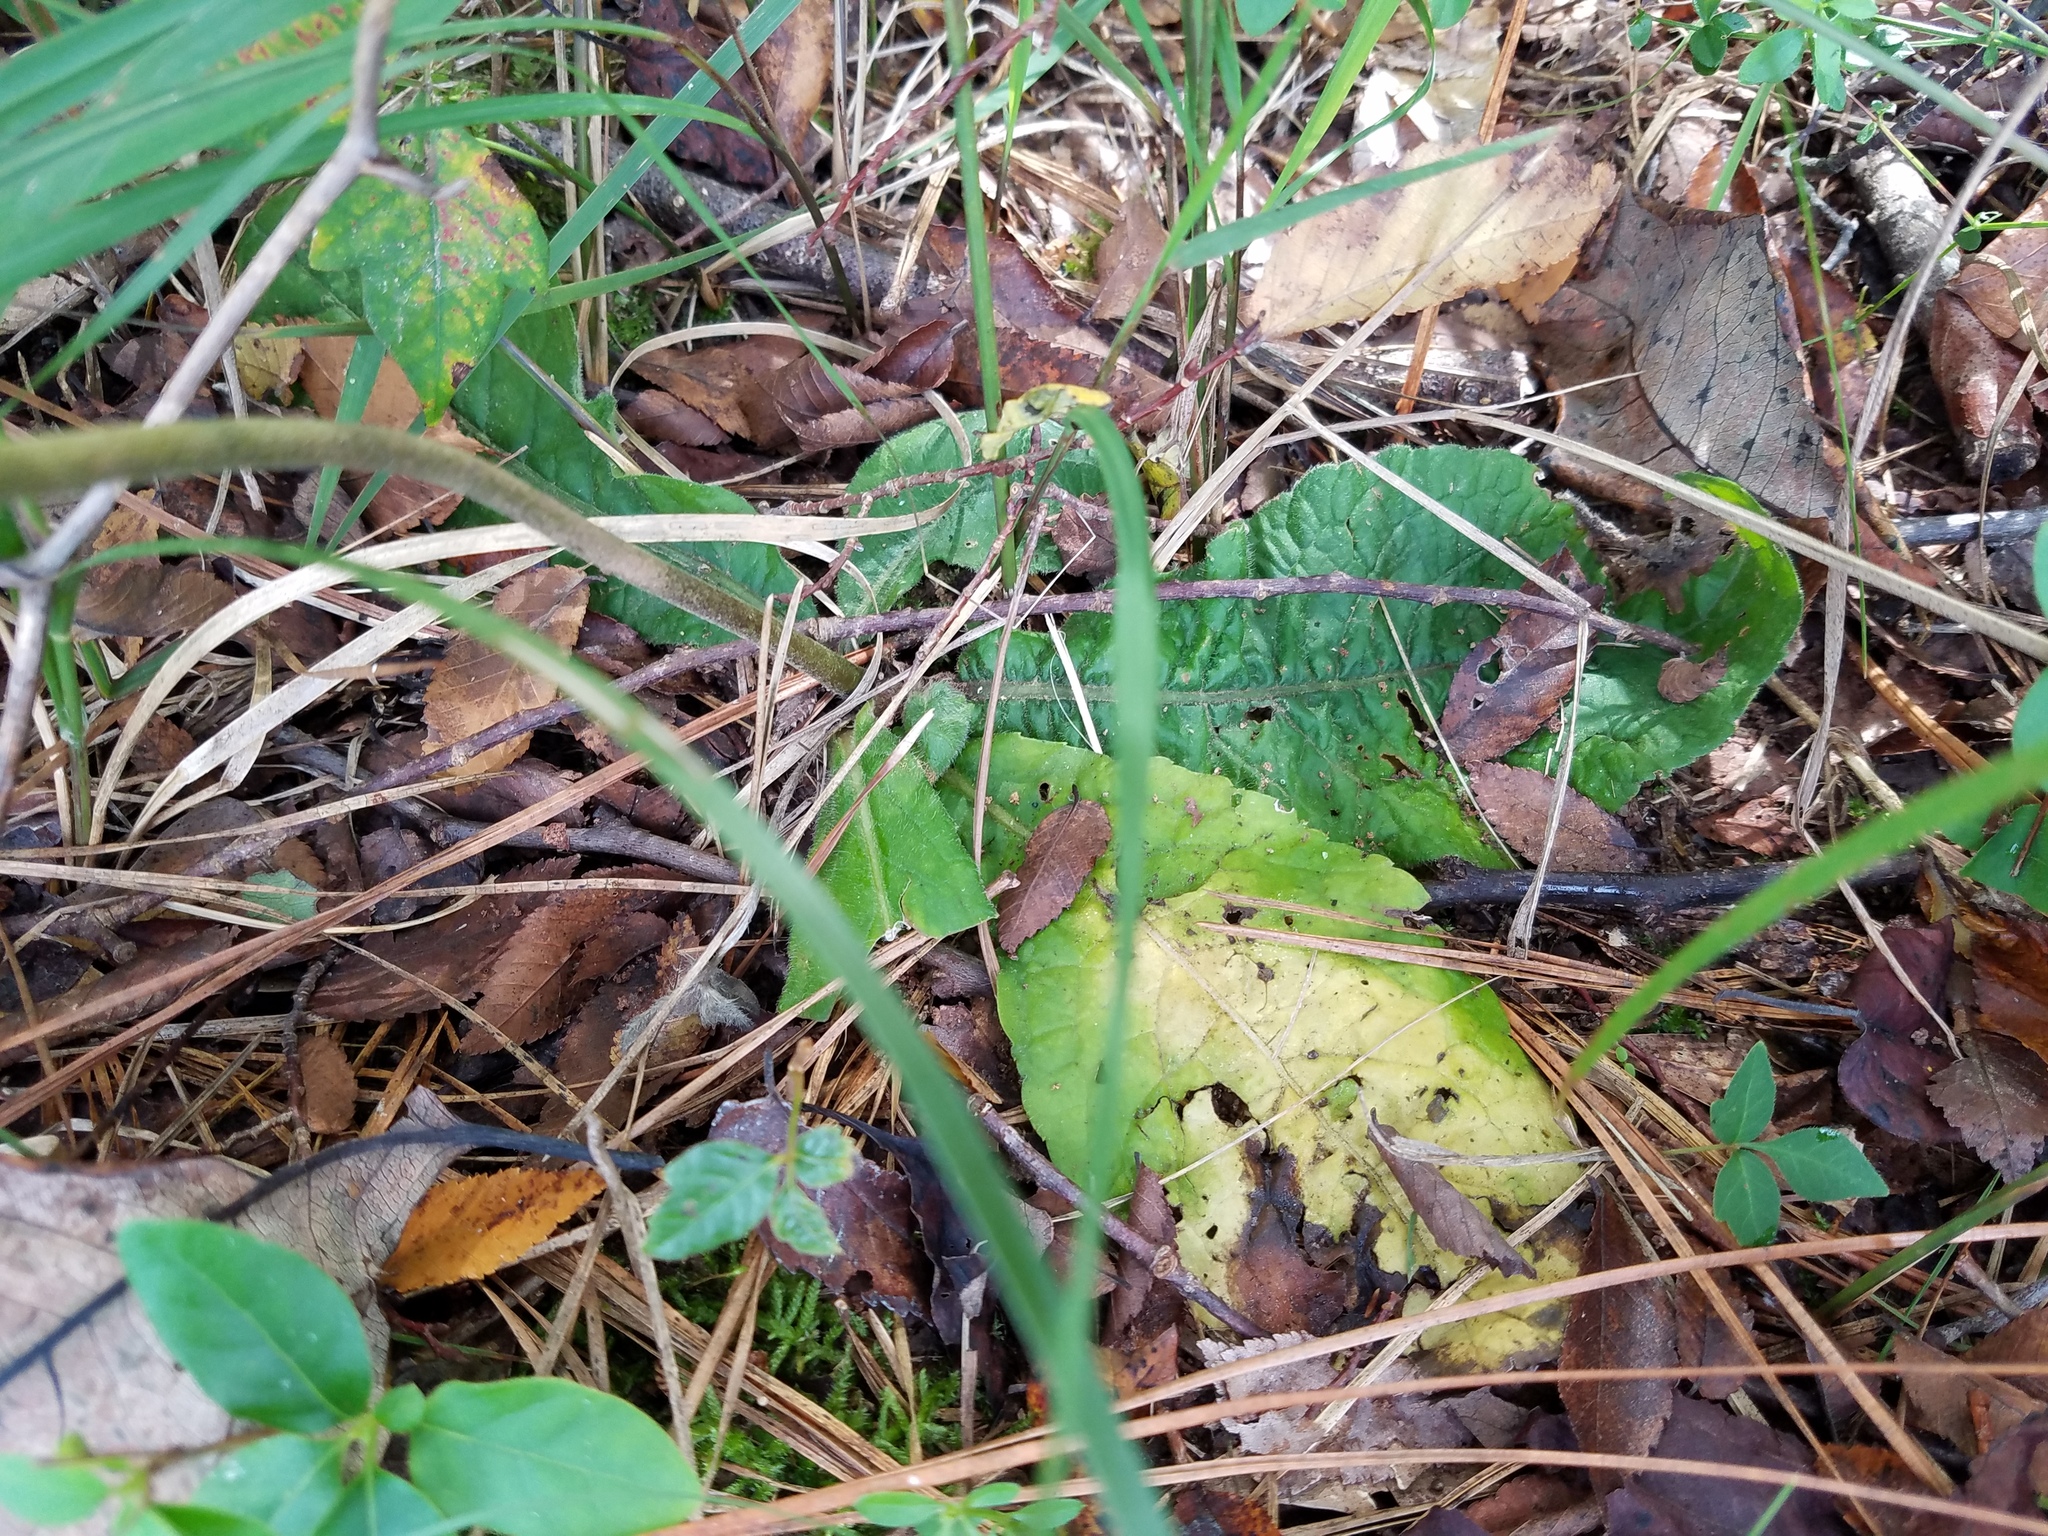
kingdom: Plantae
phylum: Tracheophyta
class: Magnoliopsida
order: Asterales
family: Asteraceae
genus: Elephantopus
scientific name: Elephantopus tomentosus
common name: Tobacco-weed
